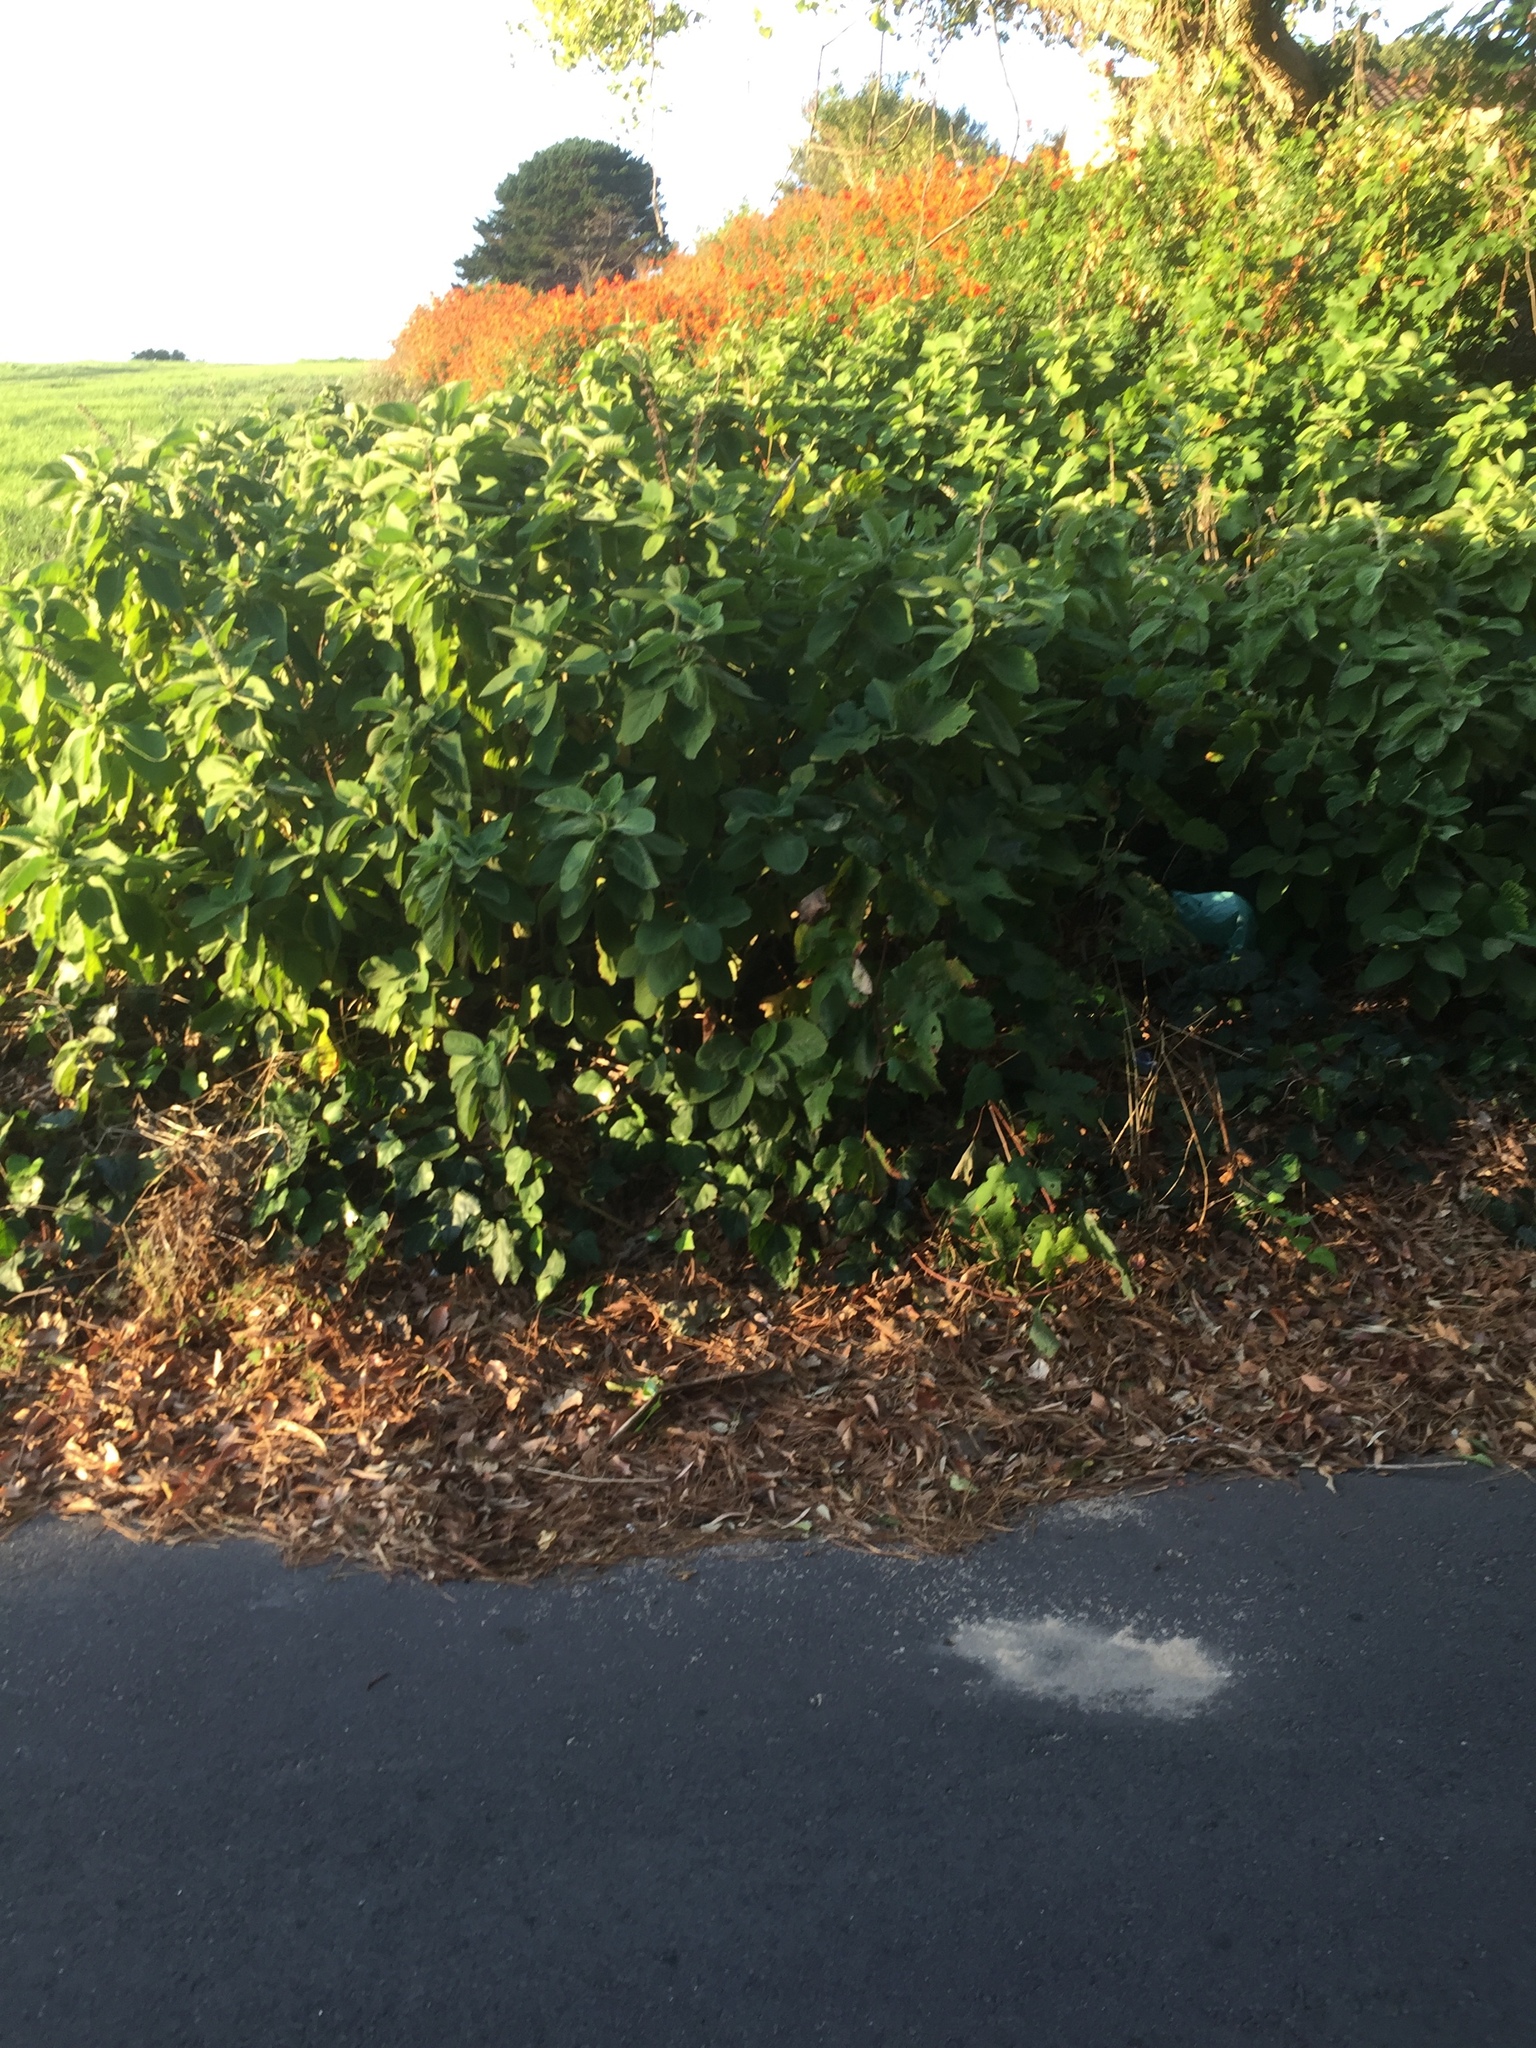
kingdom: Plantae
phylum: Tracheophyta
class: Magnoliopsida
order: Lamiales
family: Lamiaceae
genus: Coleus
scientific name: Coleus barbatus
